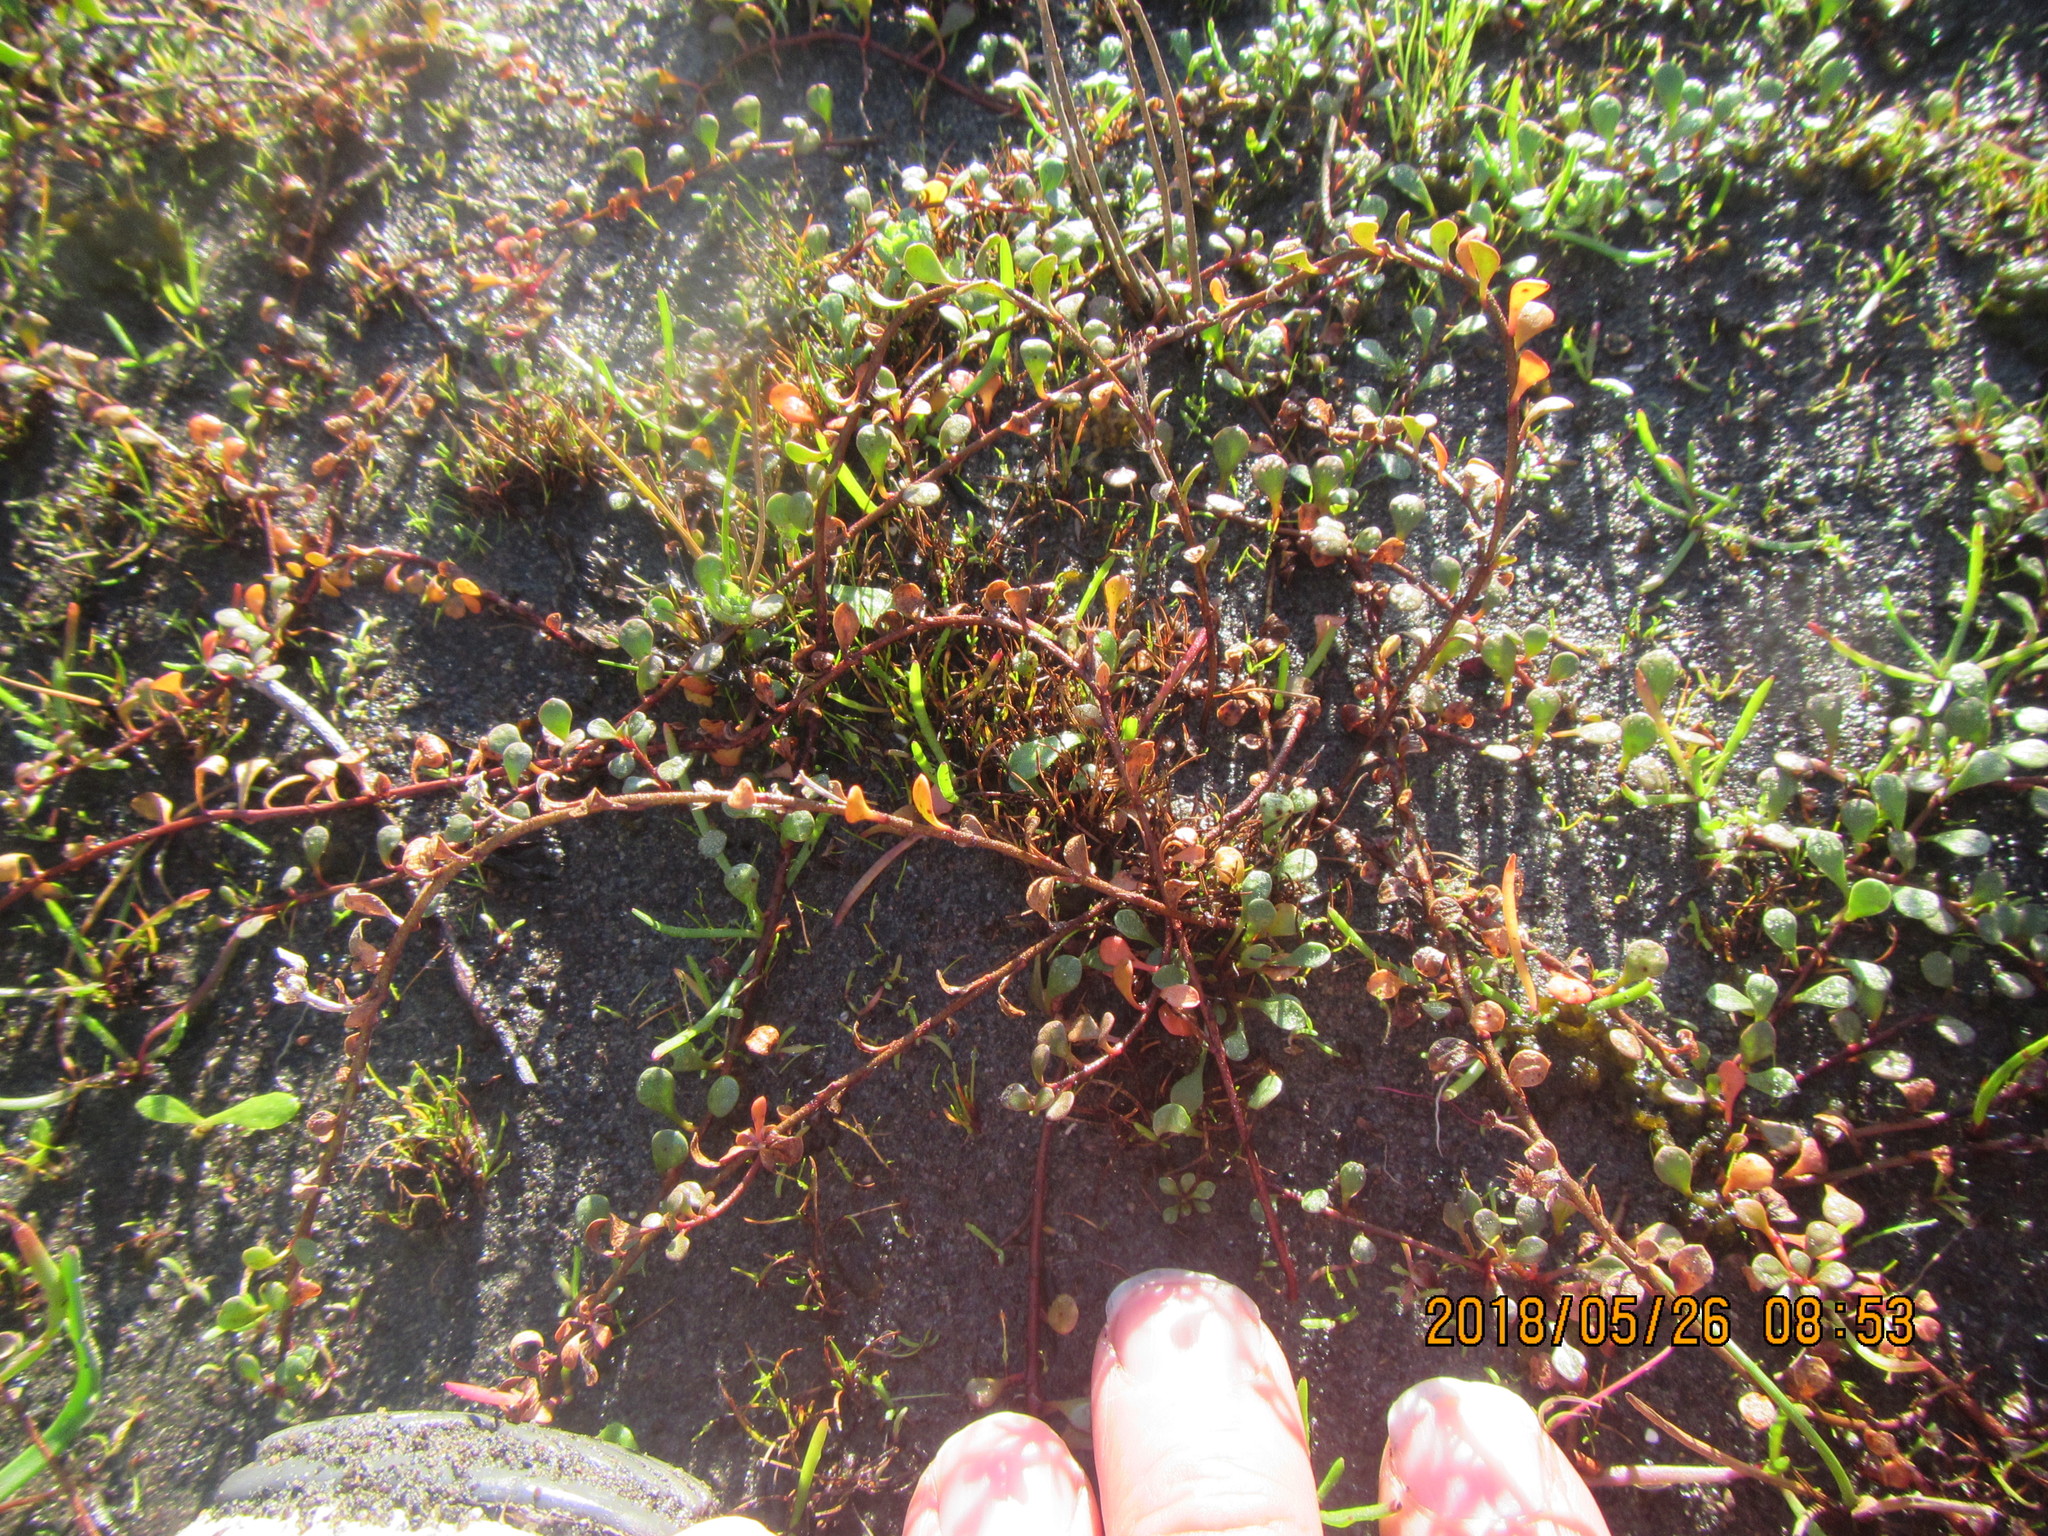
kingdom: Plantae
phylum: Tracheophyta
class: Magnoliopsida
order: Ericales
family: Primulaceae
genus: Samolus
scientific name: Samolus repens
